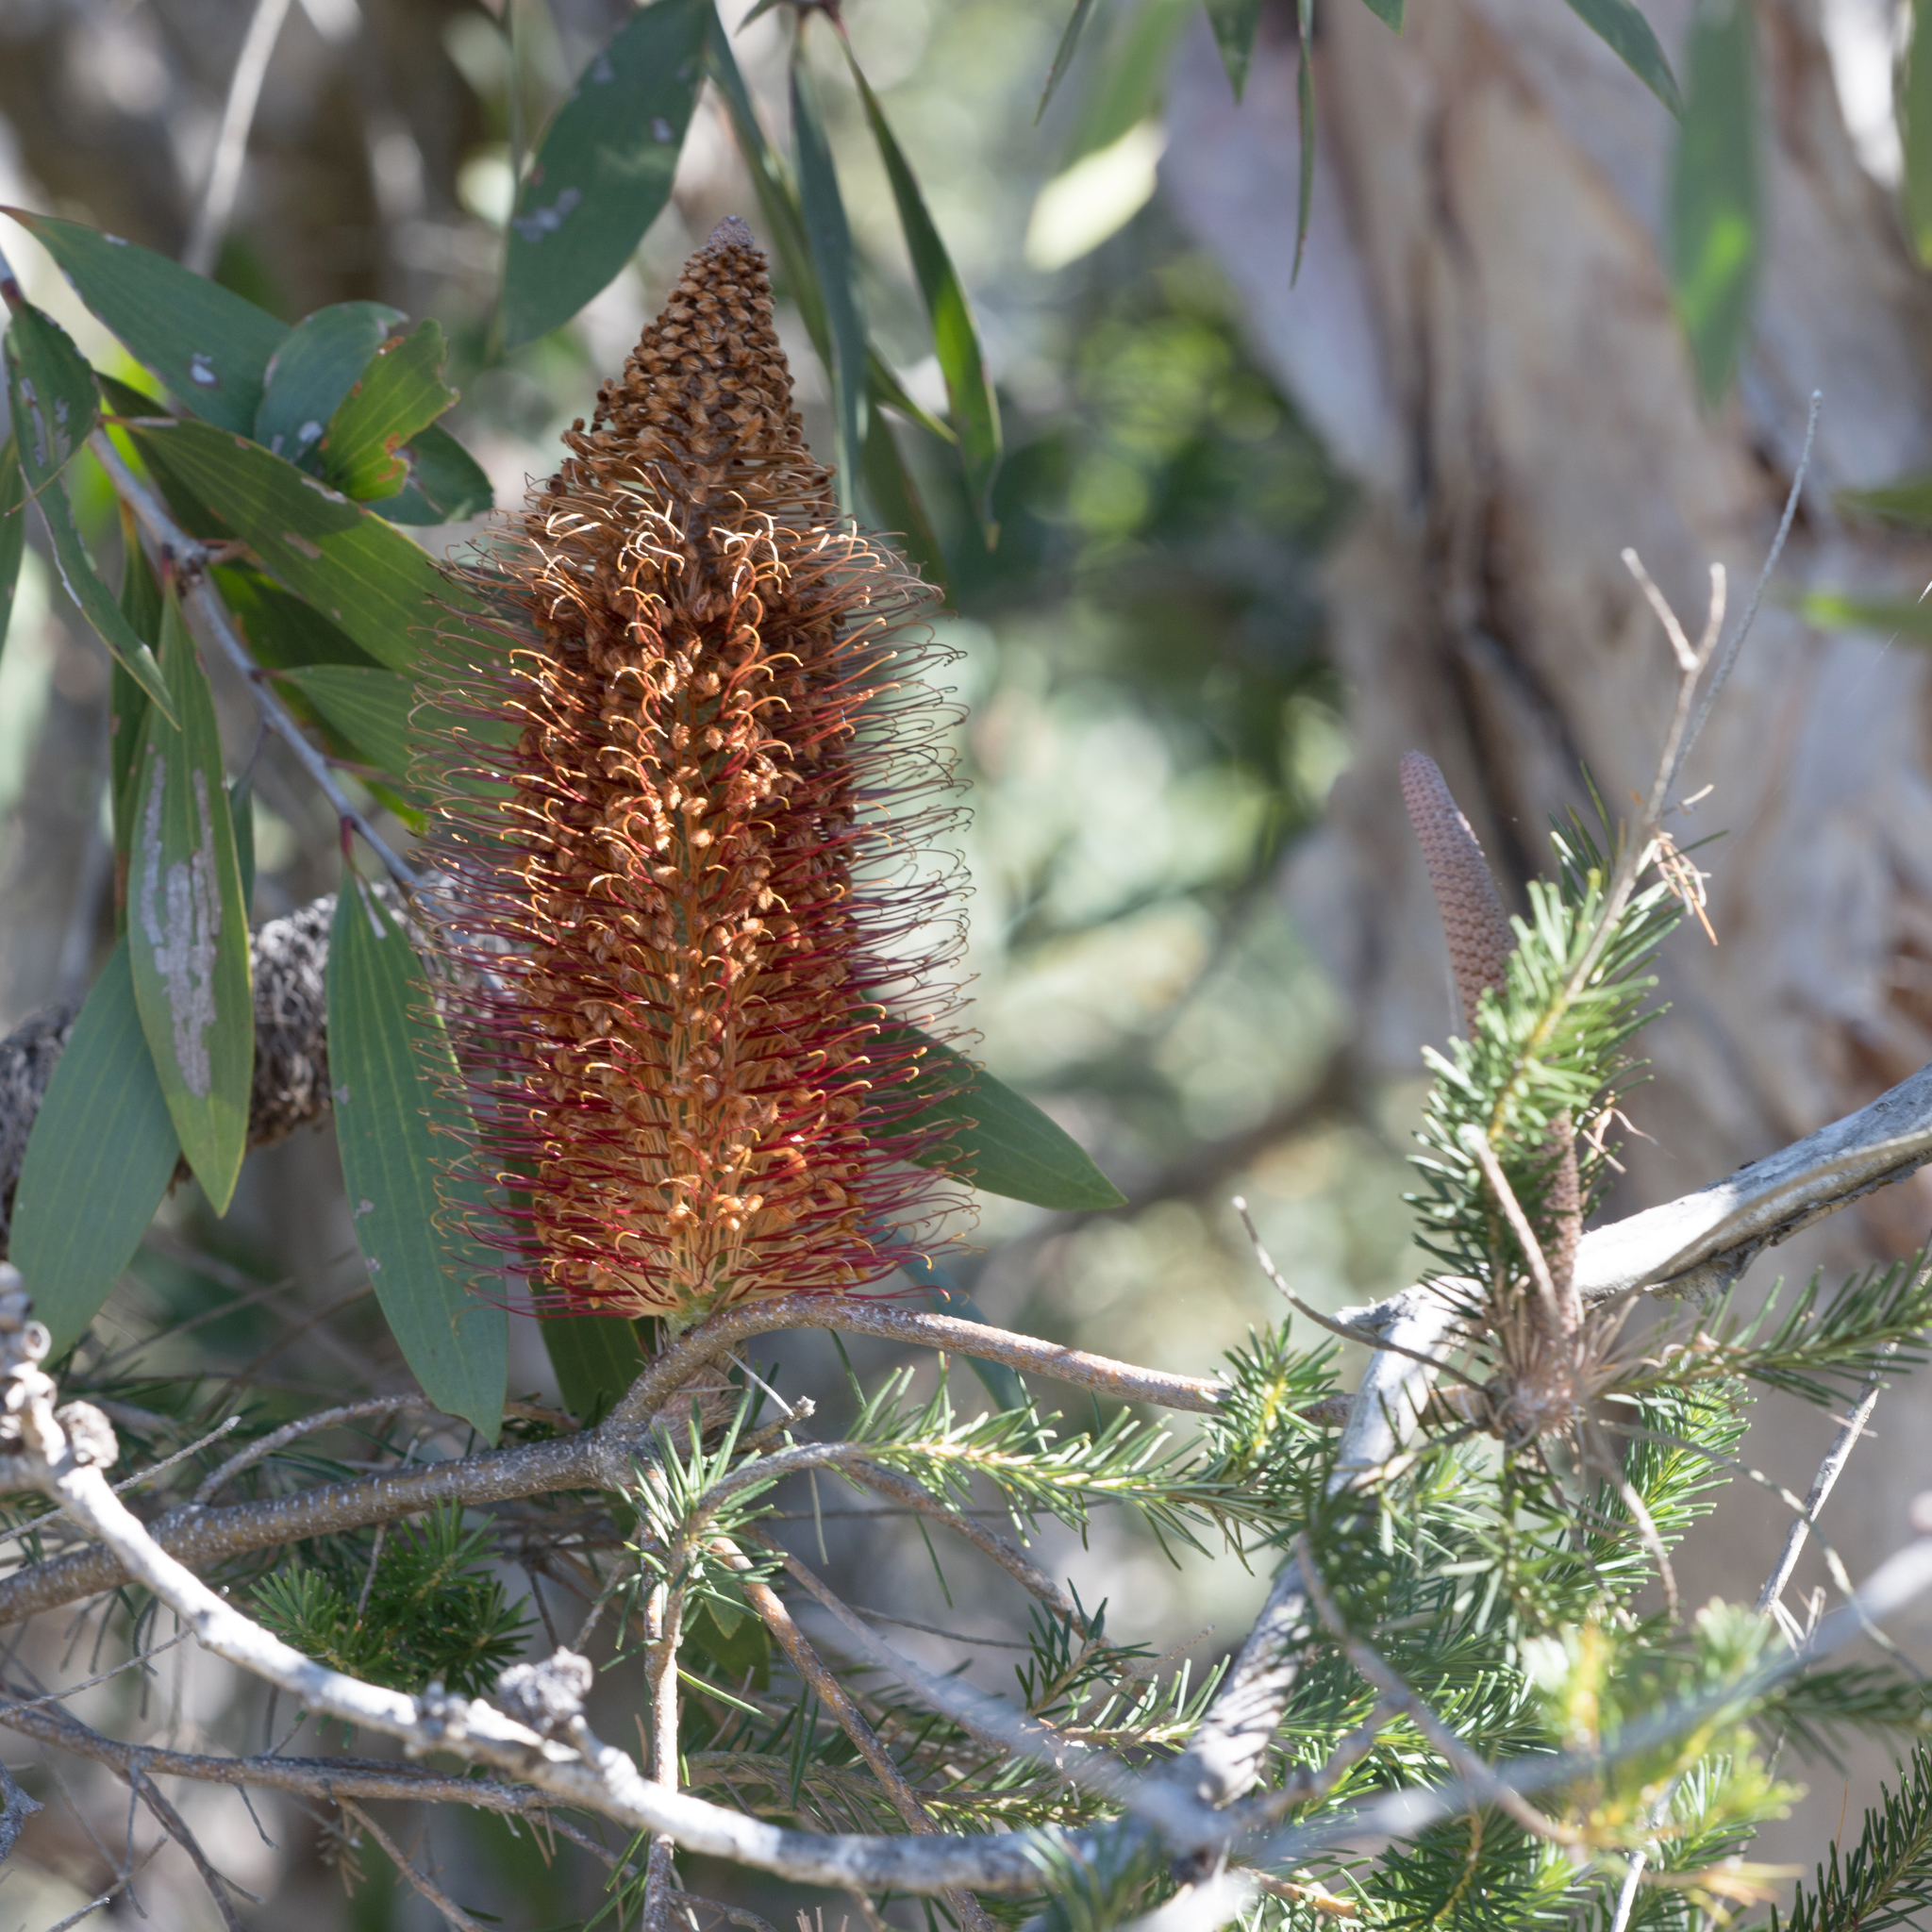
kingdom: Plantae
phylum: Tracheophyta
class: Magnoliopsida
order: Proteales
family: Proteaceae
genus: Banksia
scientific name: Banksia ericifolia
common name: Heath-leaf banksia
